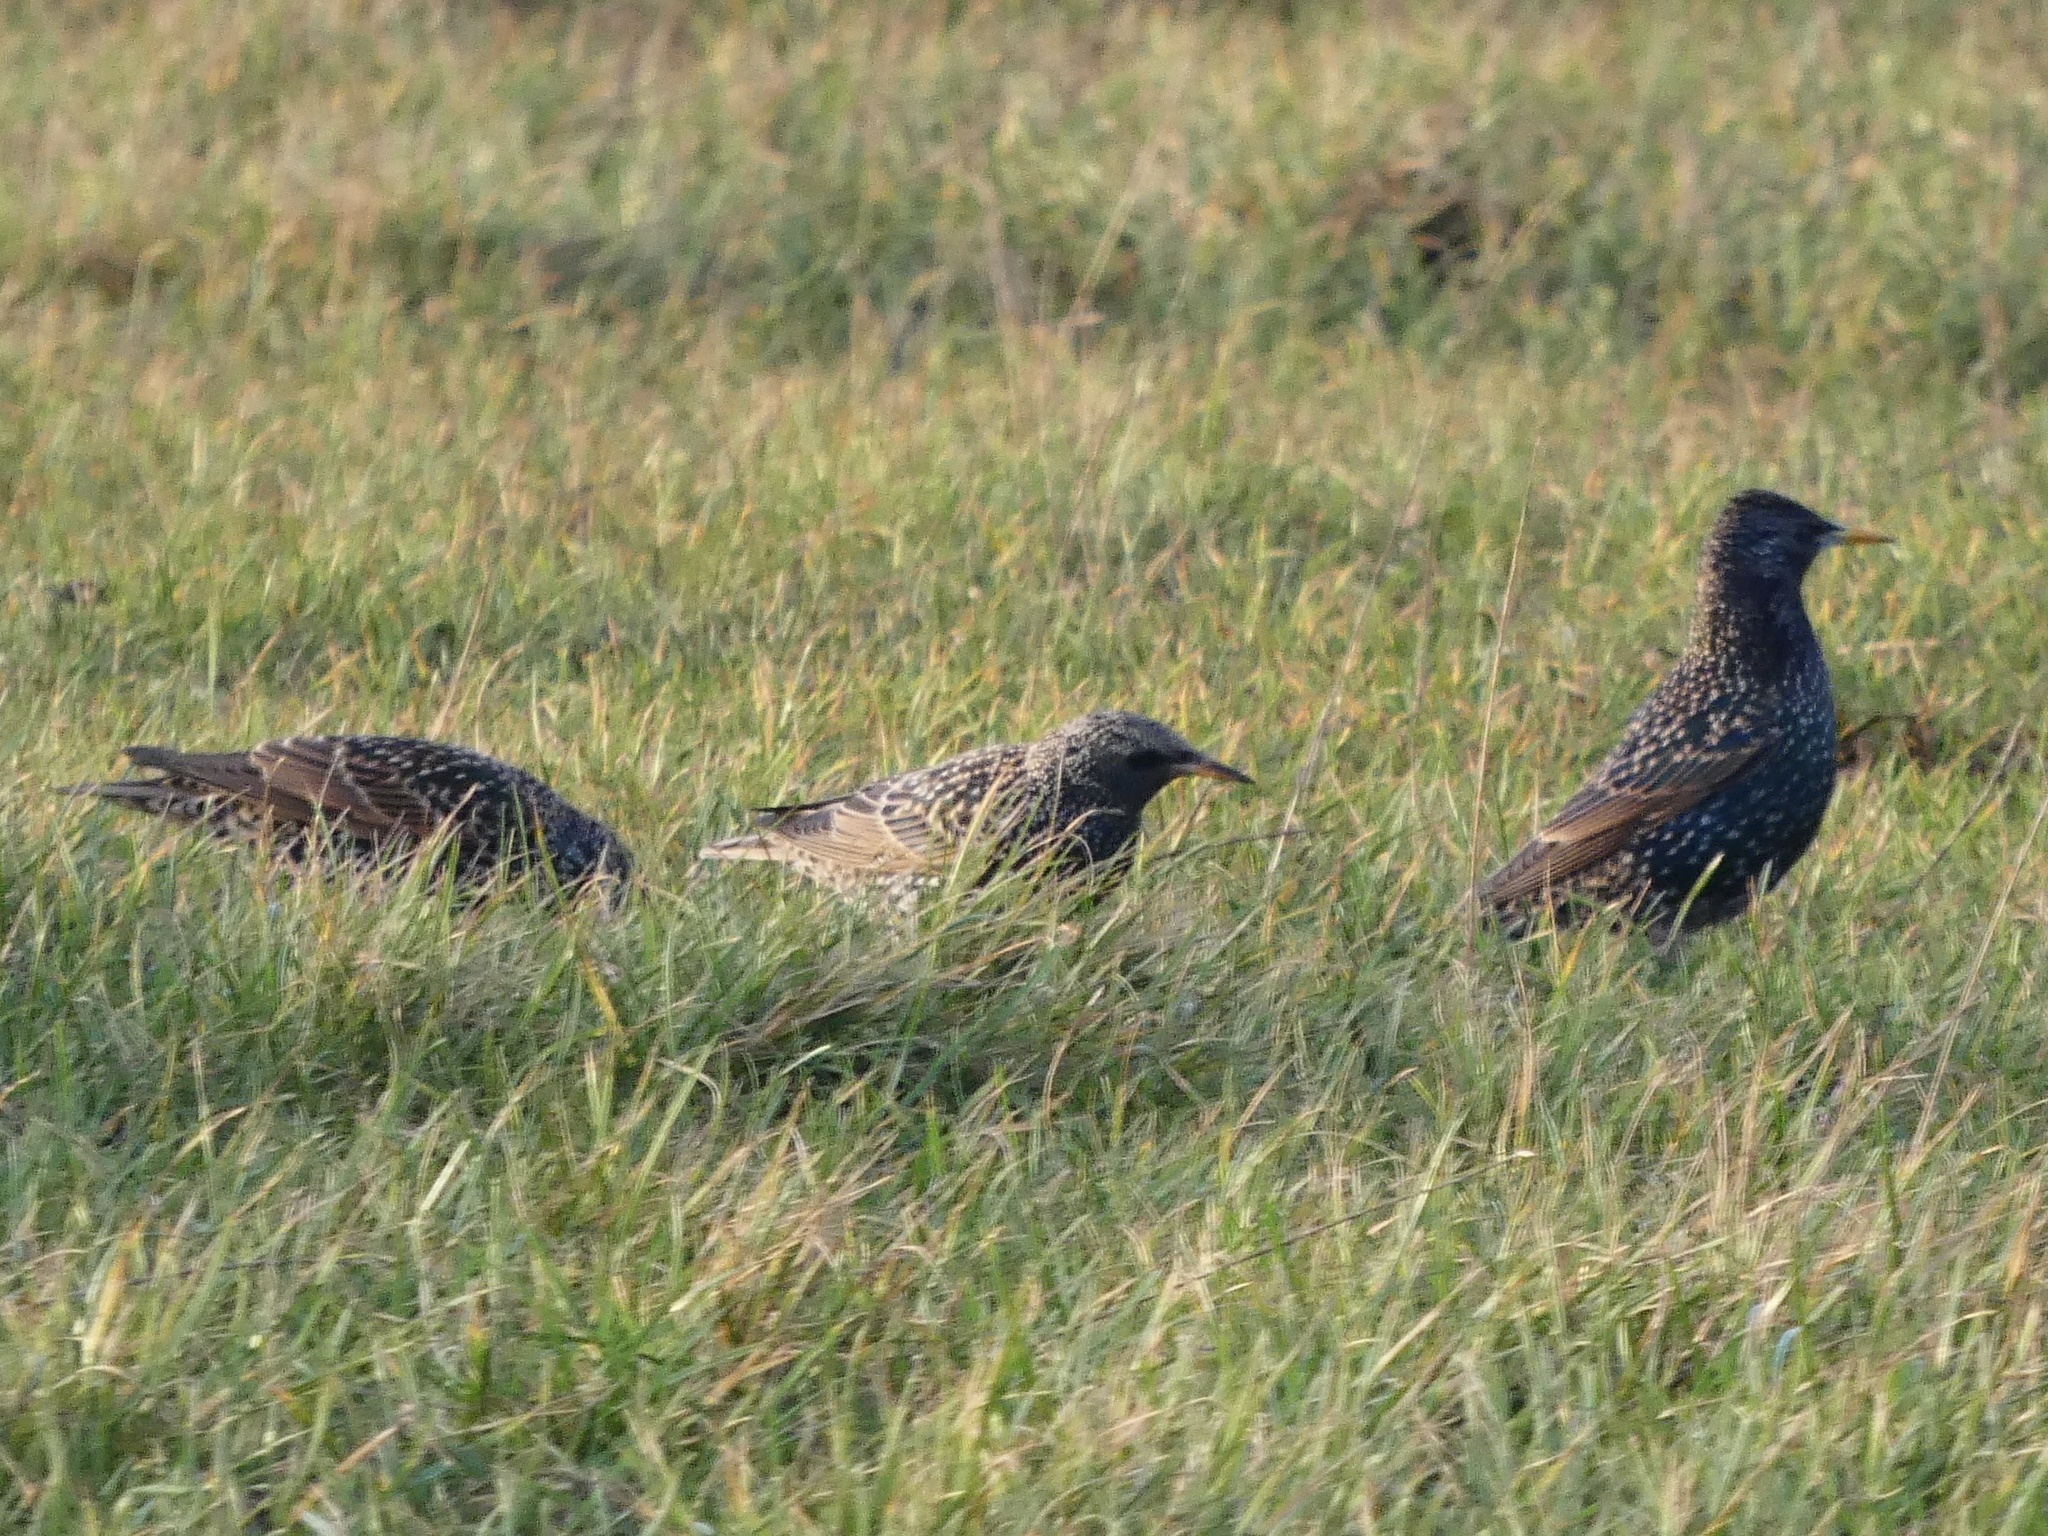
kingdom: Animalia
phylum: Chordata
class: Aves
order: Passeriformes
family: Sturnidae
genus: Sturnus
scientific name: Sturnus vulgaris
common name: Common starling
